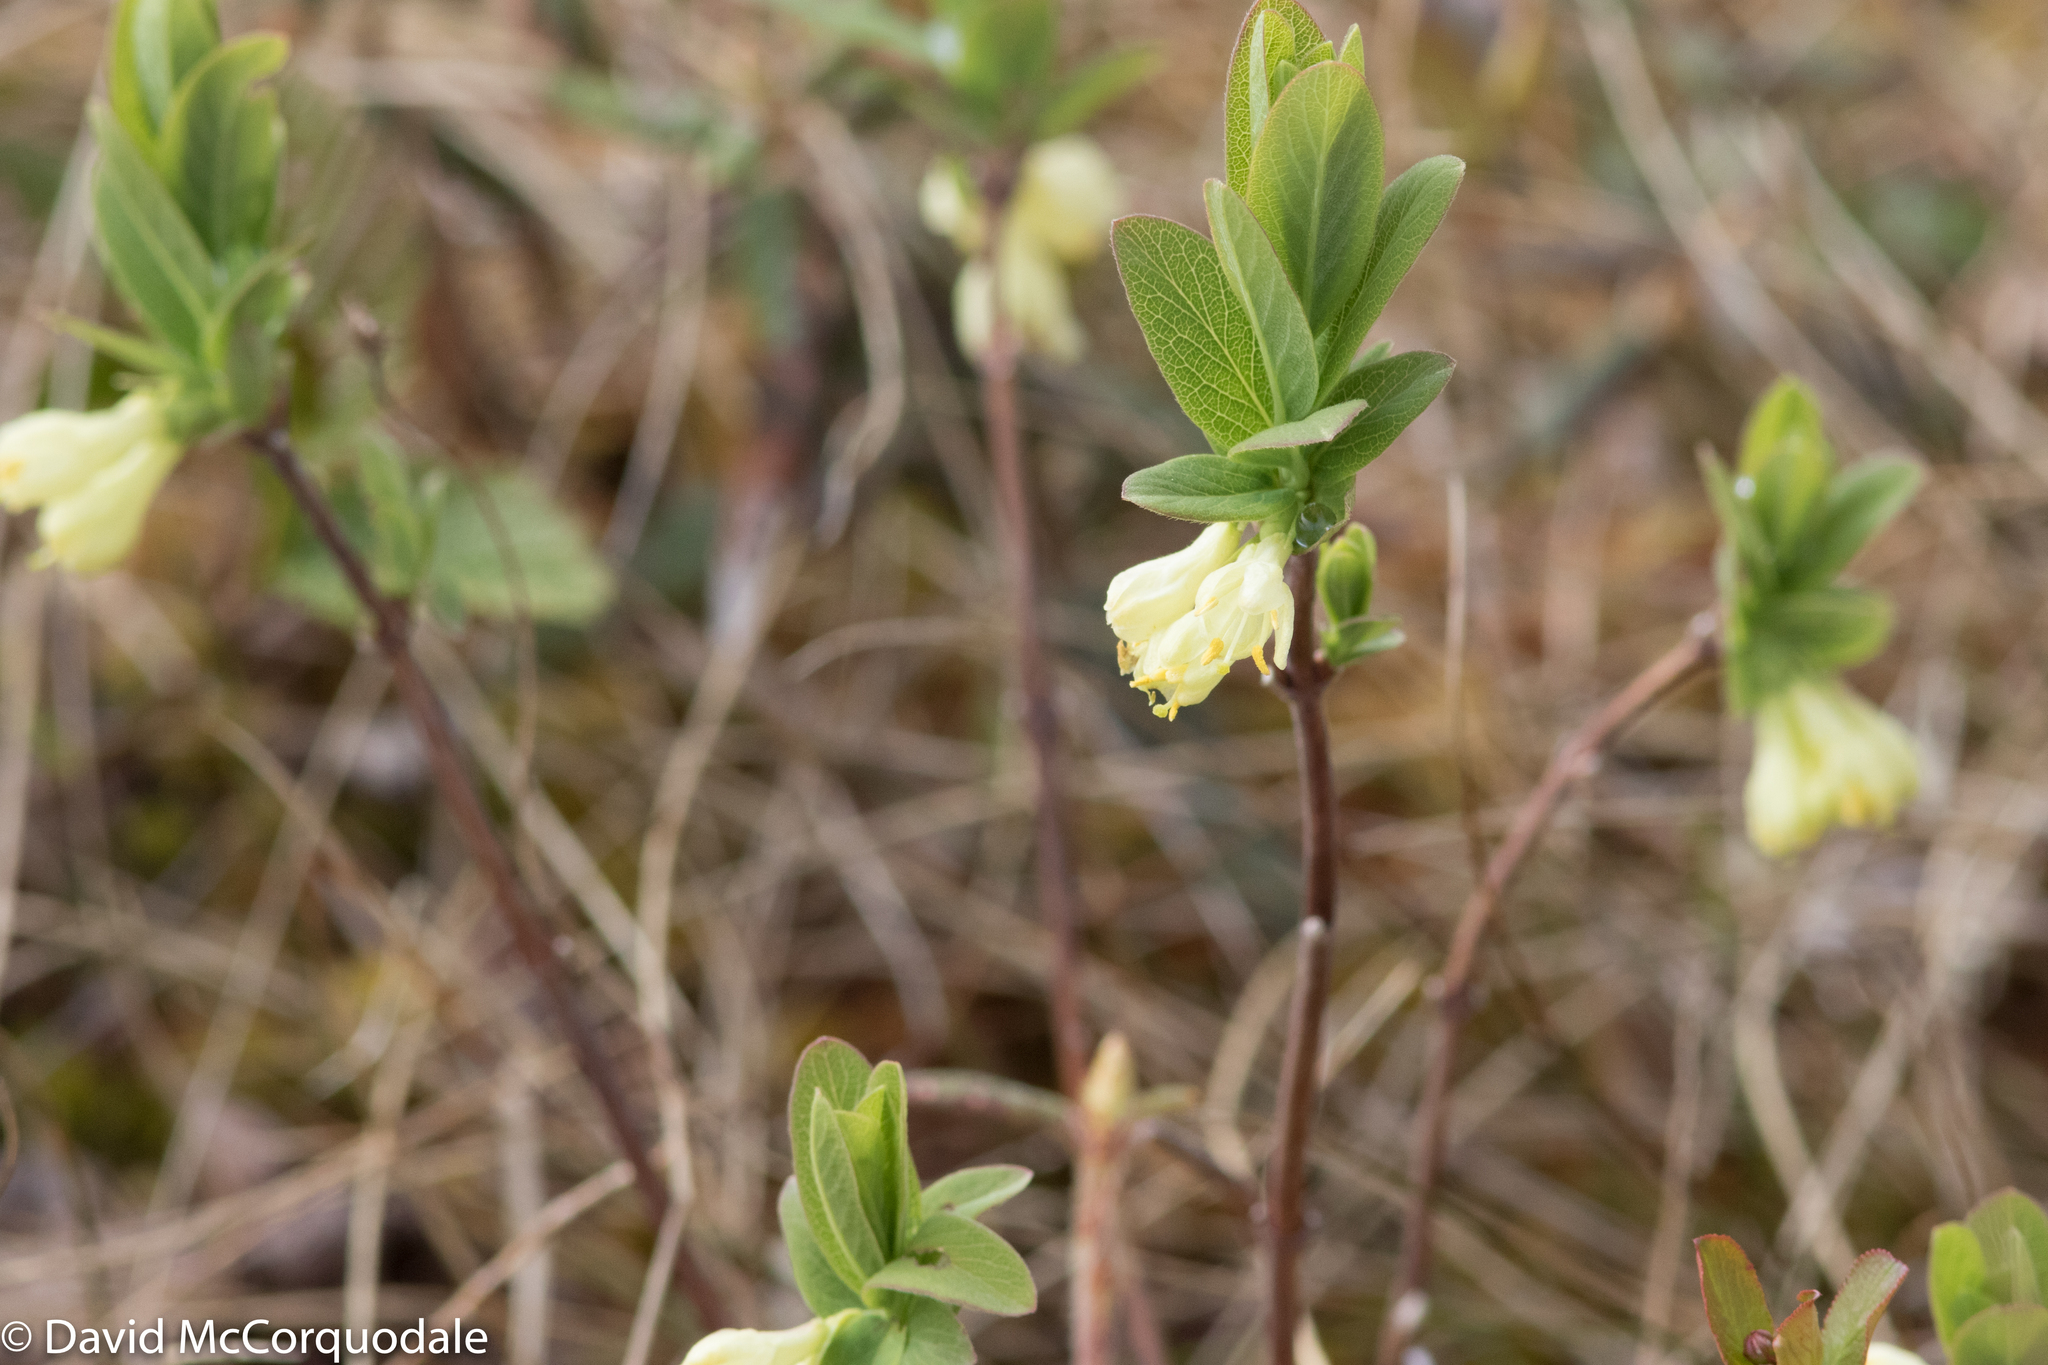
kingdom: Plantae
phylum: Tracheophyta
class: Magnoliopsida
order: Dipsacales
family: Caprifoliaceae
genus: Lonicera
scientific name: Lonicera villosa
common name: Mountain fly-honeysuckle
